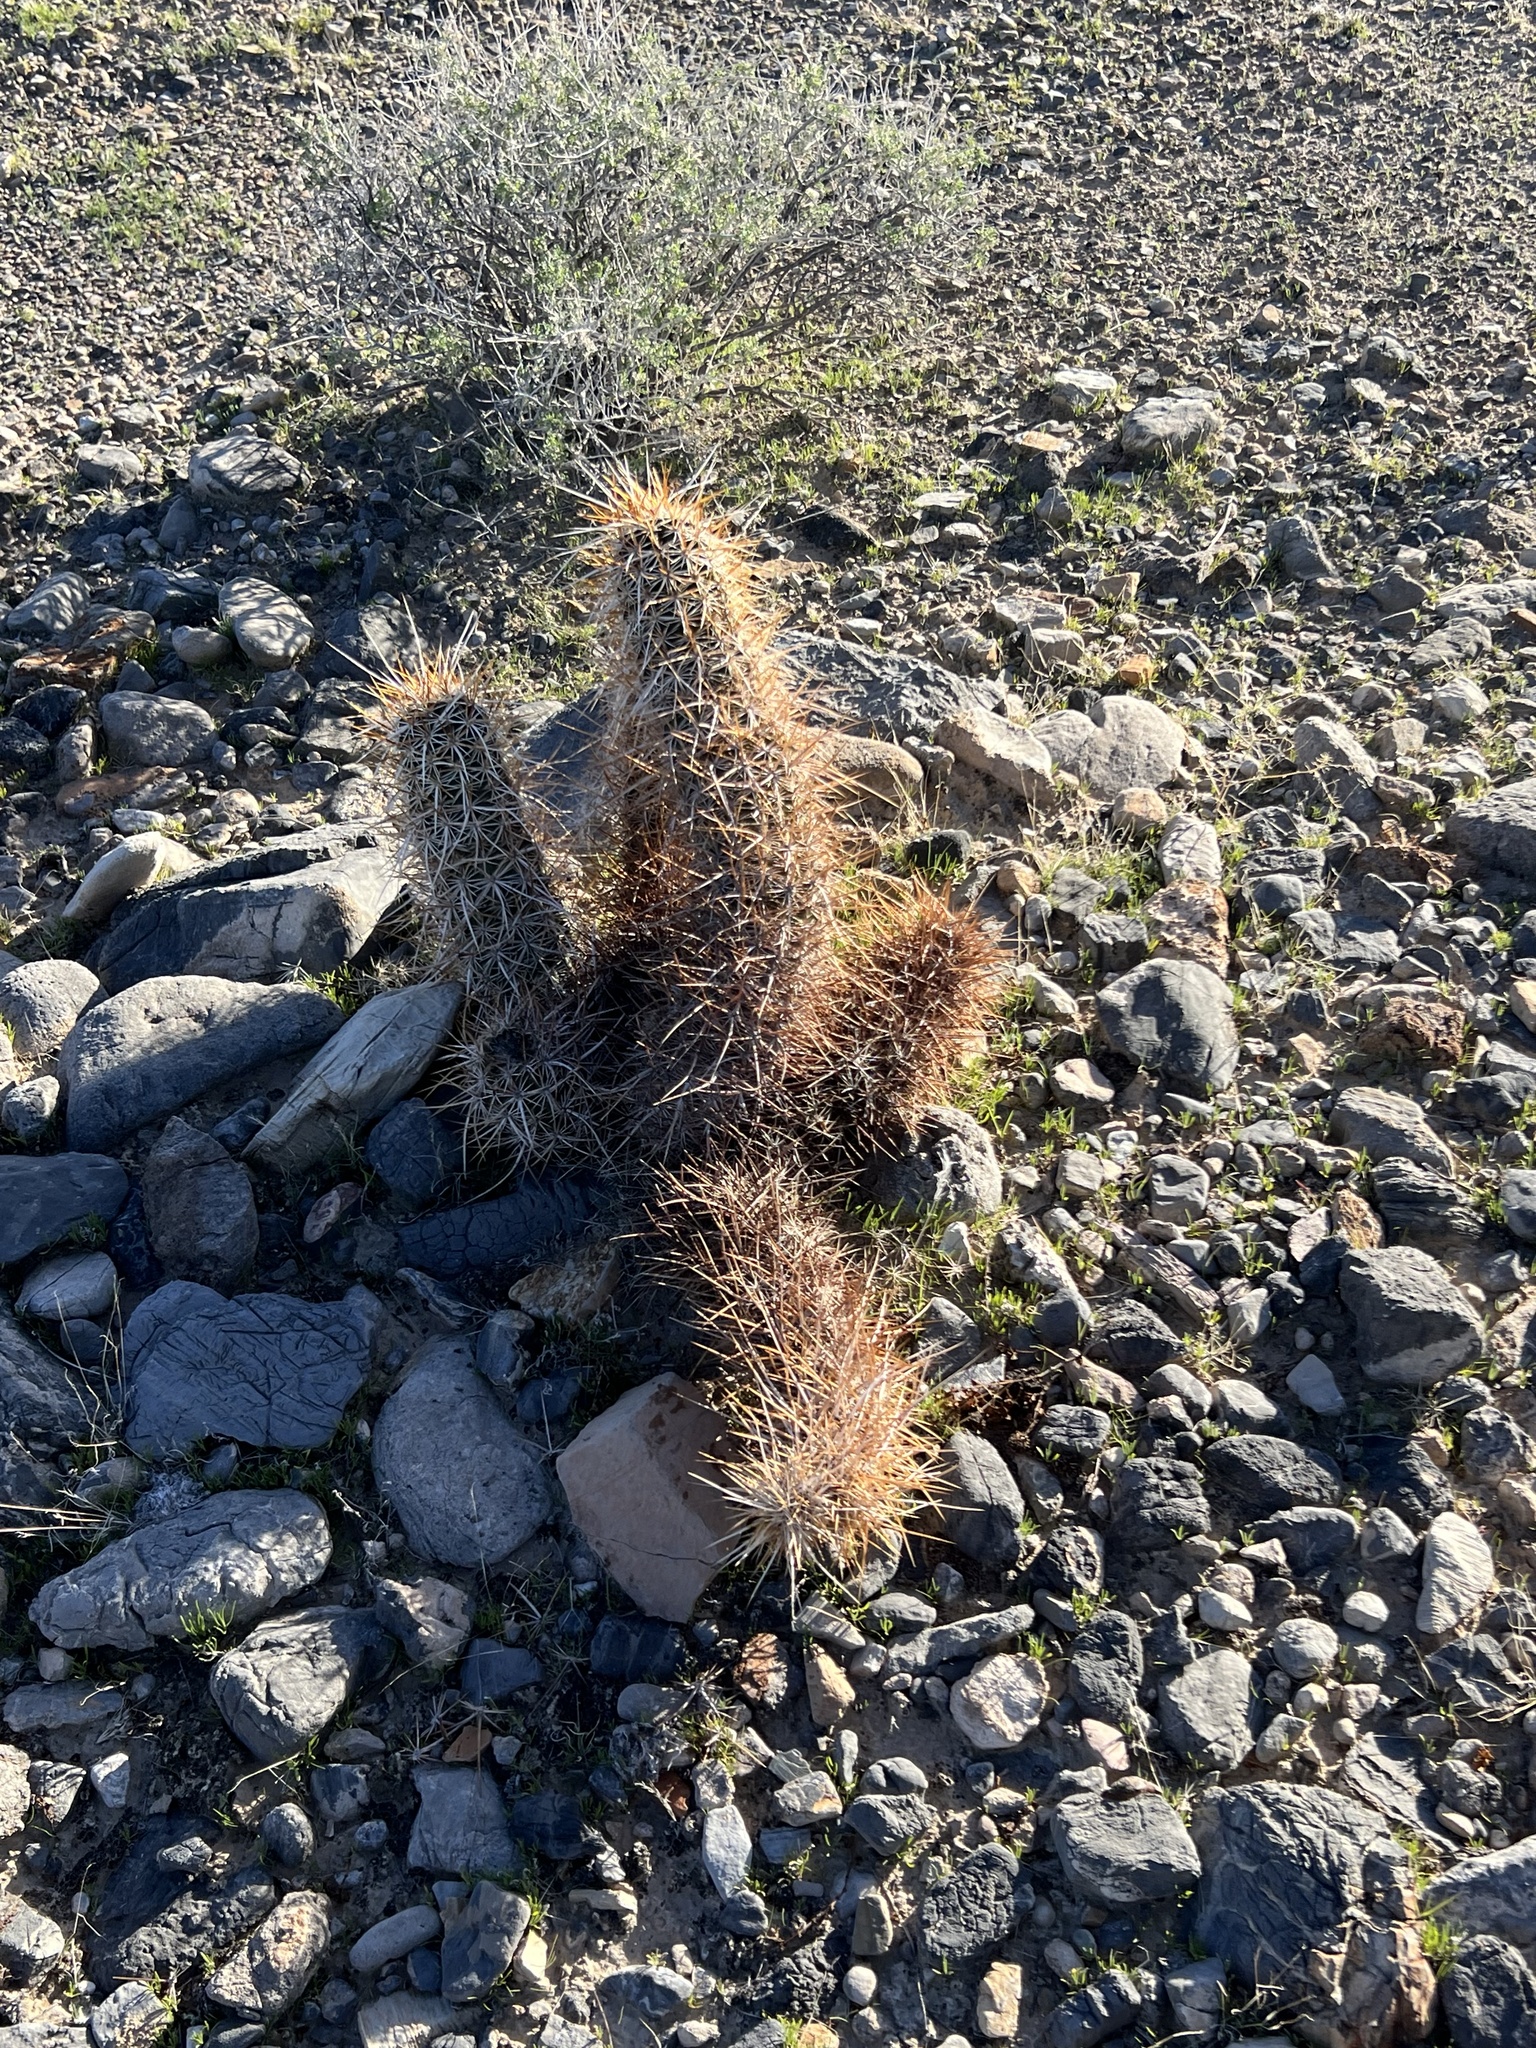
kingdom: Plantae
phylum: Tracheophyta
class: Magnoliopsida
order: Caryophyllales
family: Cactaceae
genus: Echinocereus
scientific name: Echinocereus engelmannii
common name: Engelmann's hedgehog cactus
